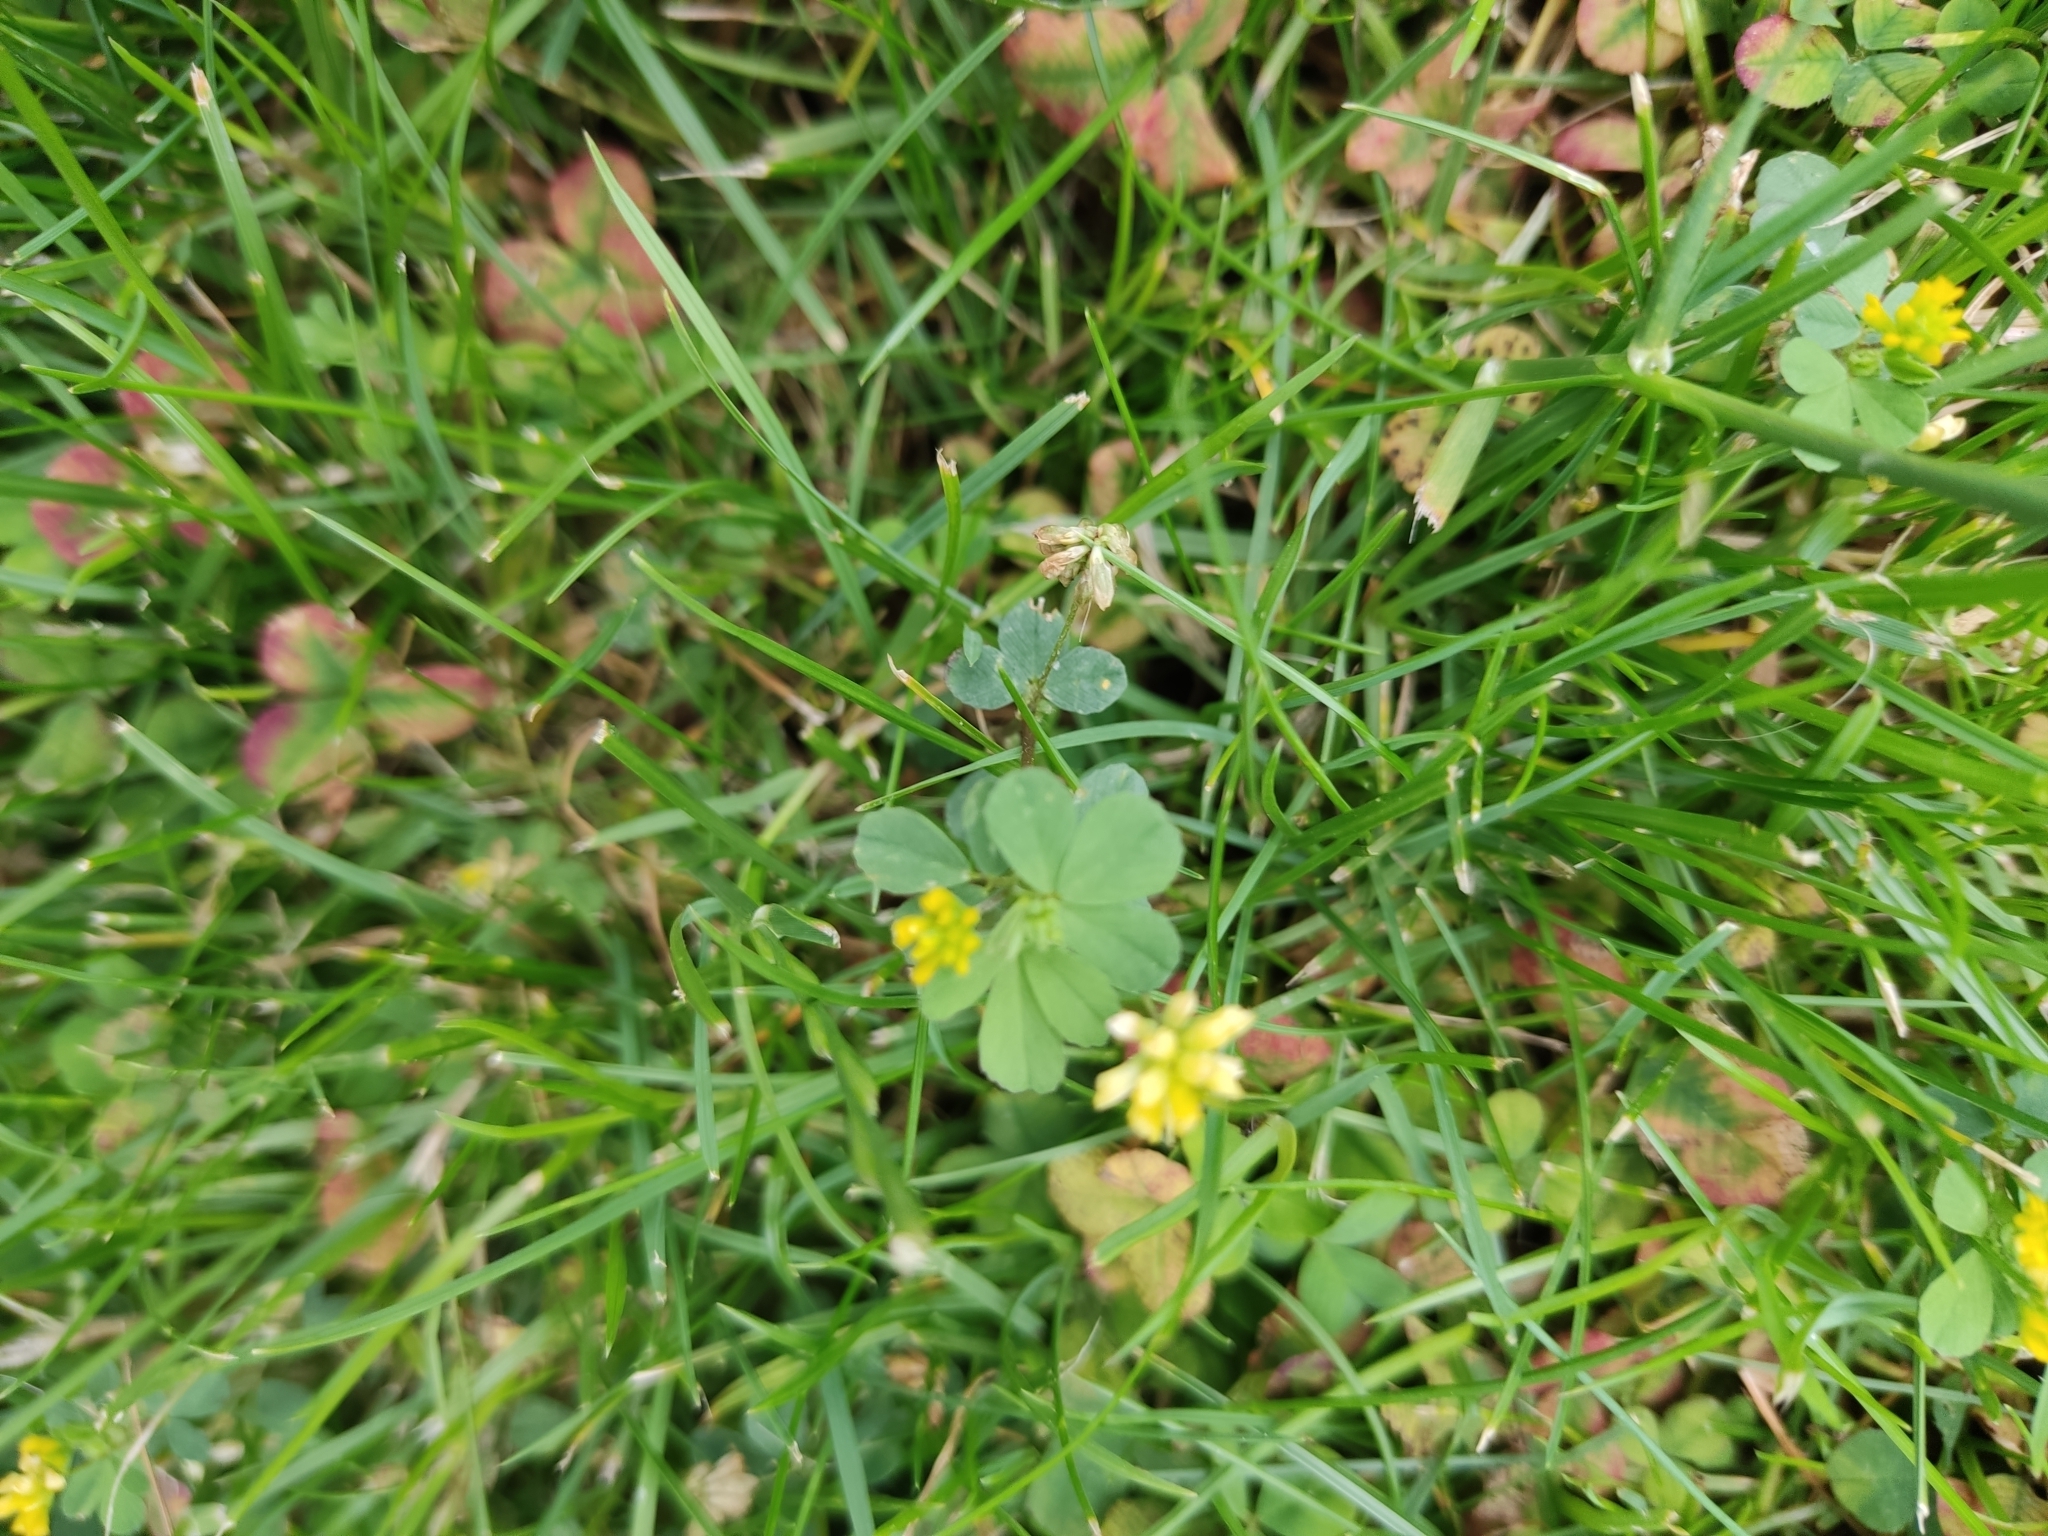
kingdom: Plantae
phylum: Tracheophyta
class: Magnoliopsida
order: Fabales
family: Fabaceae
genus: Trifolium
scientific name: Trifolium dubium
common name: Suckling clover
